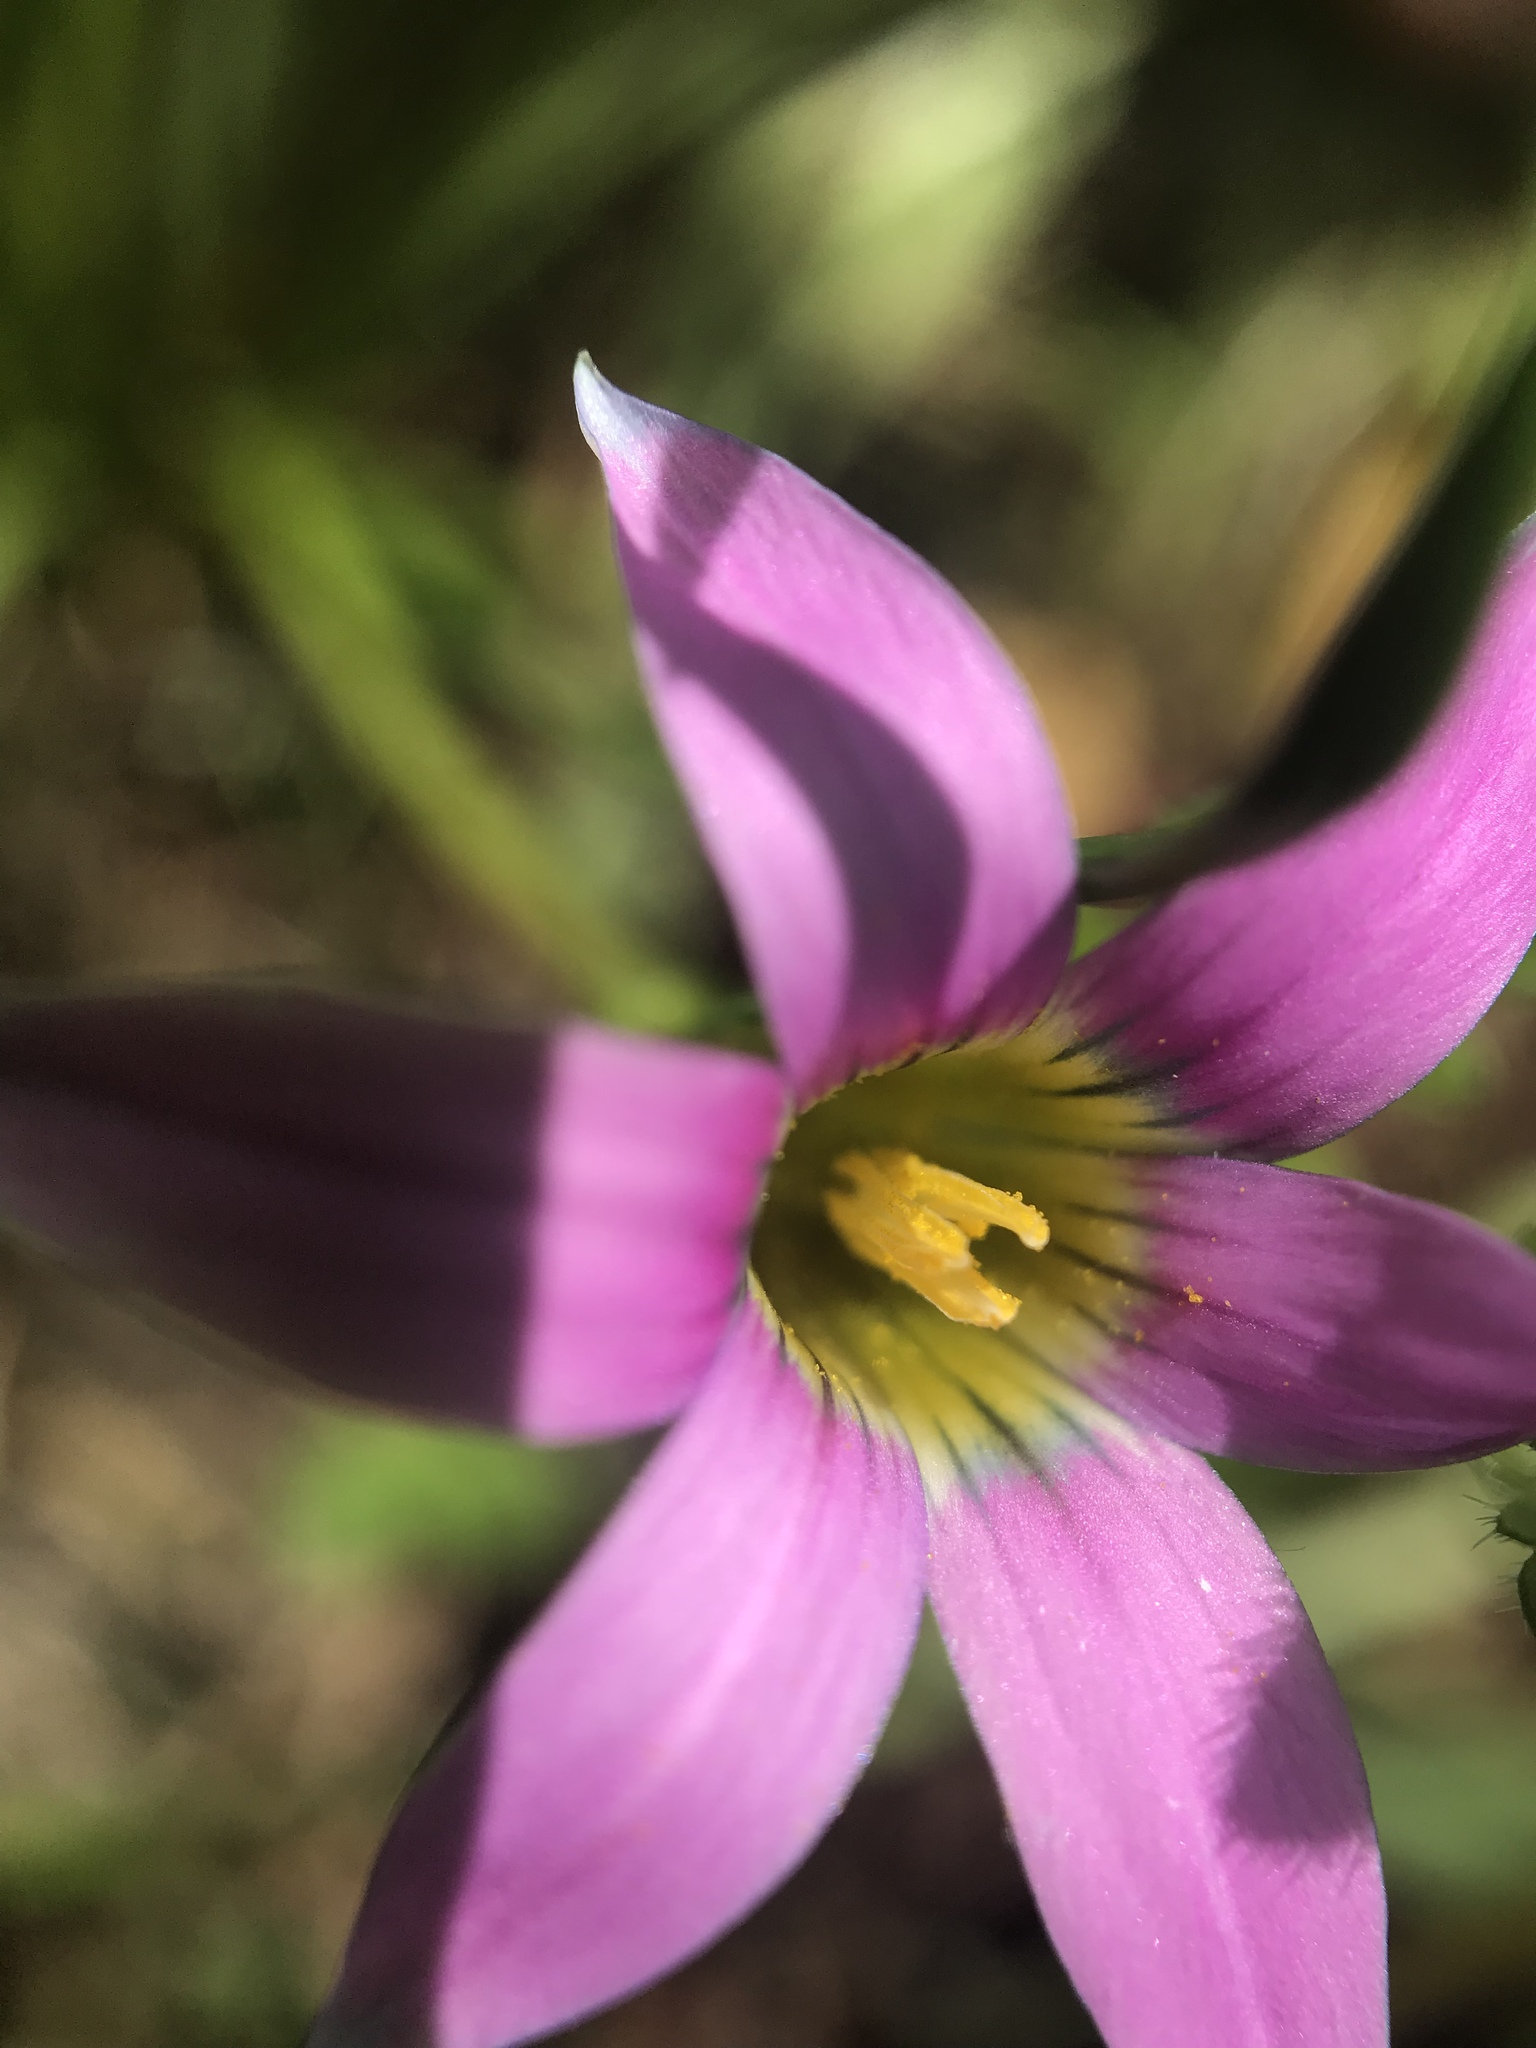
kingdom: Plantae
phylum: Tracheophyta
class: Liliopsida
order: Asparagales
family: Iridaceae
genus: Romulea
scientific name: Romulea rosea
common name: Oniongrass
